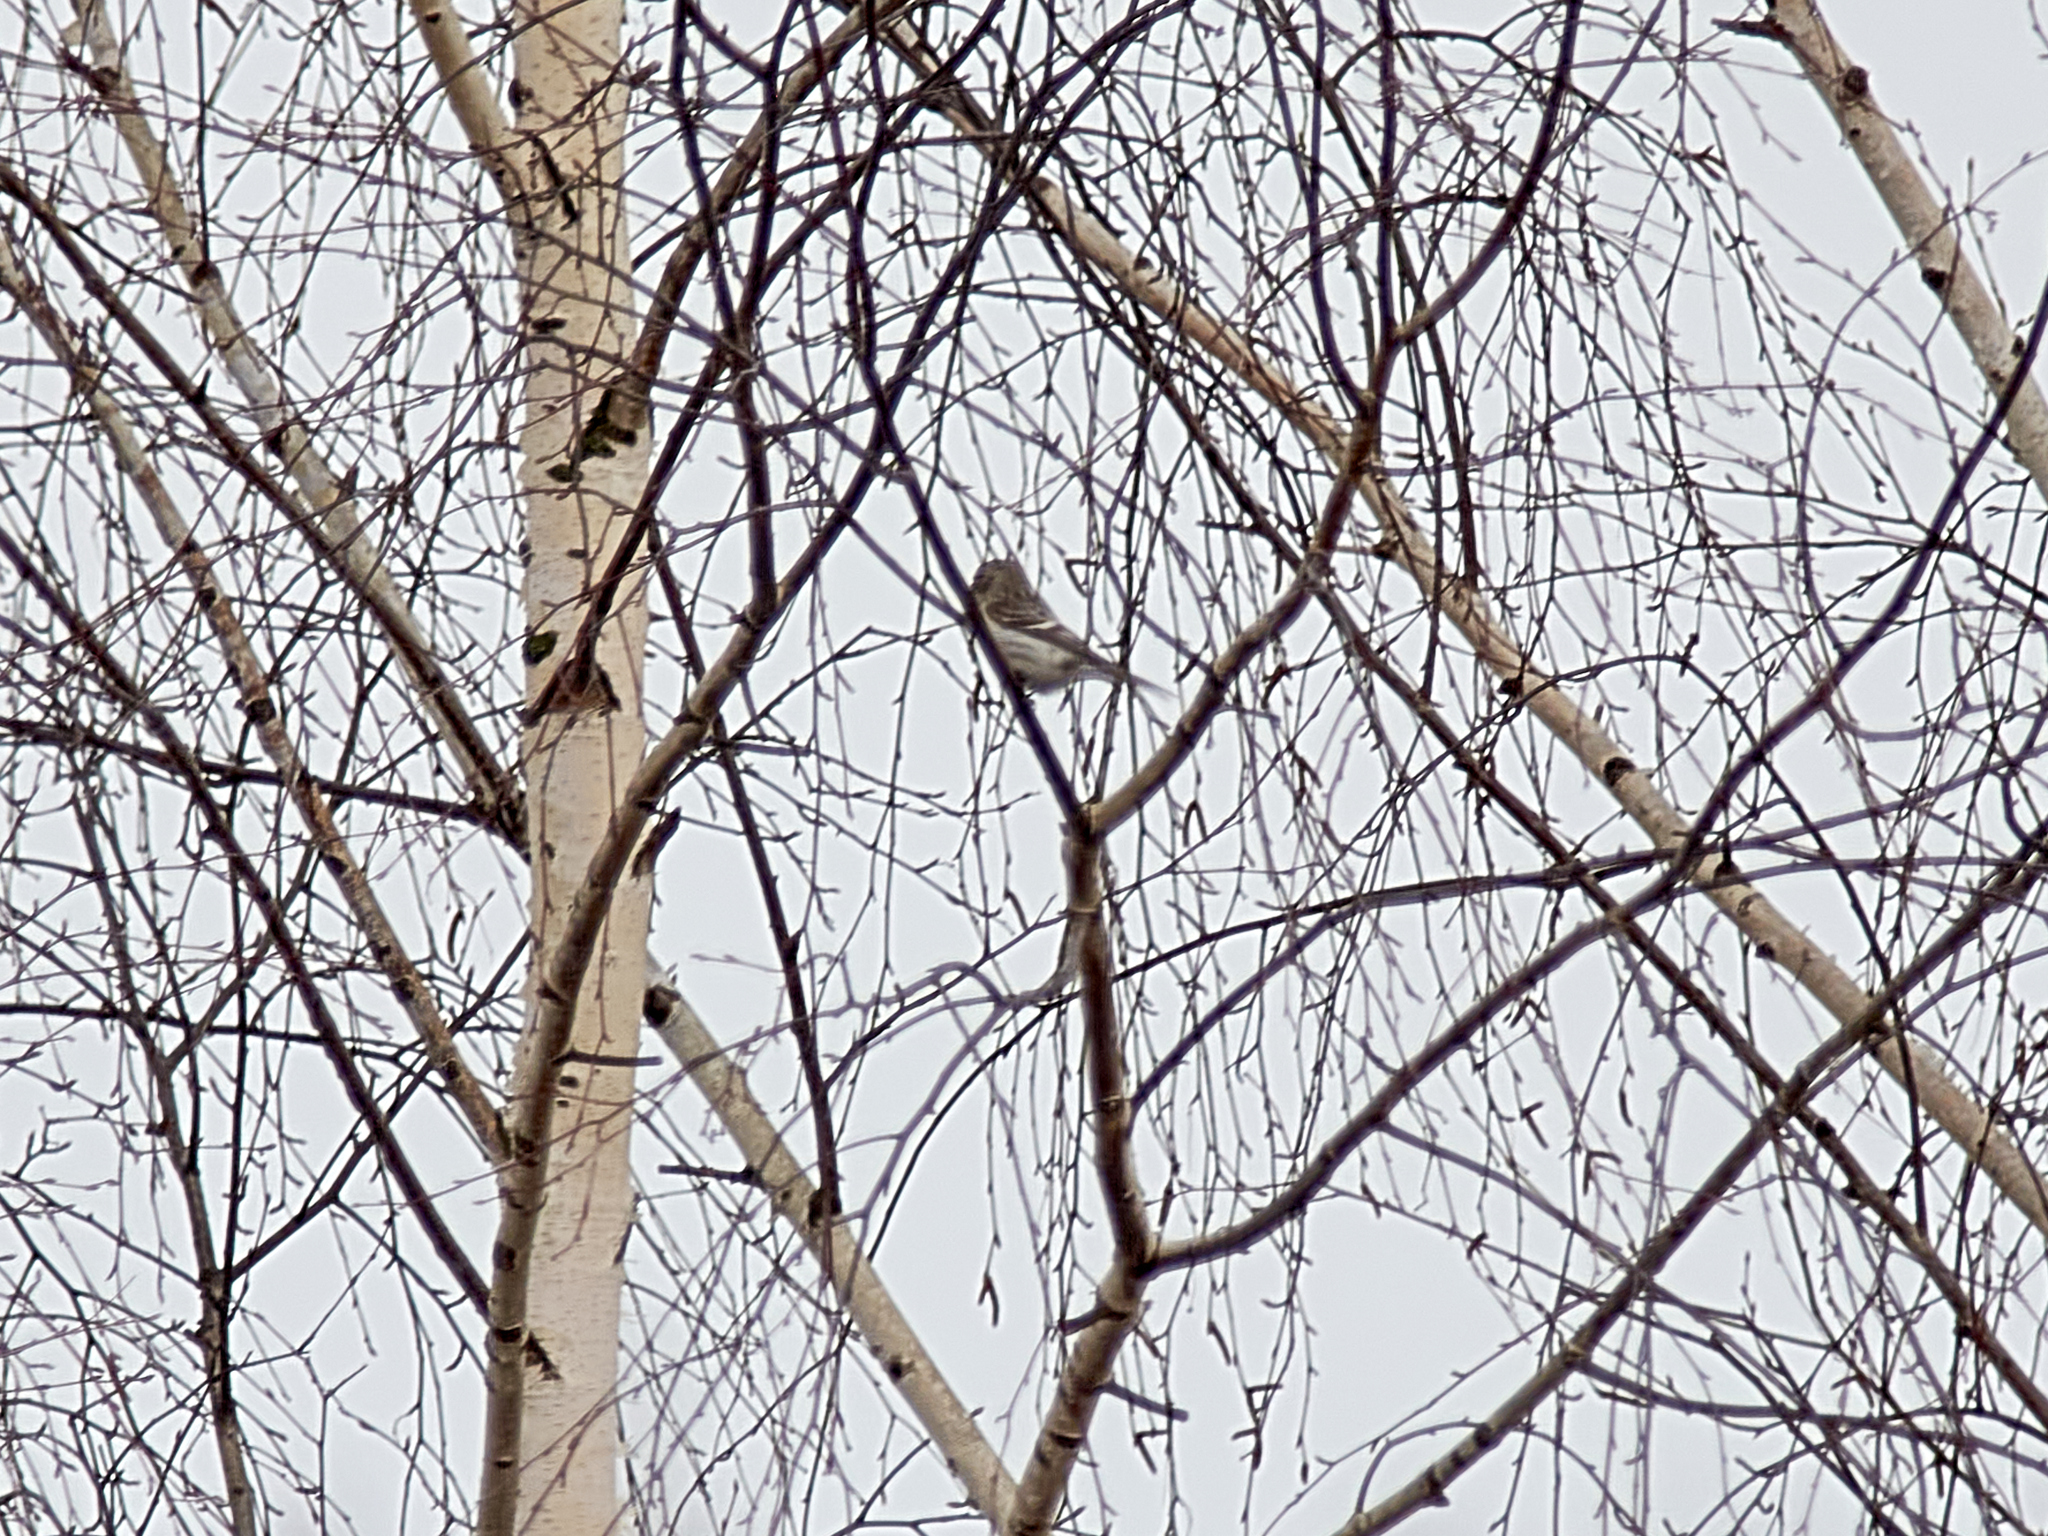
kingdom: Animalia
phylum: Chordata
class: Aves
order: Passeriformes
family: Fringillidae
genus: Acanthis
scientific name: Acanthis flammea
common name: Common redpoll
